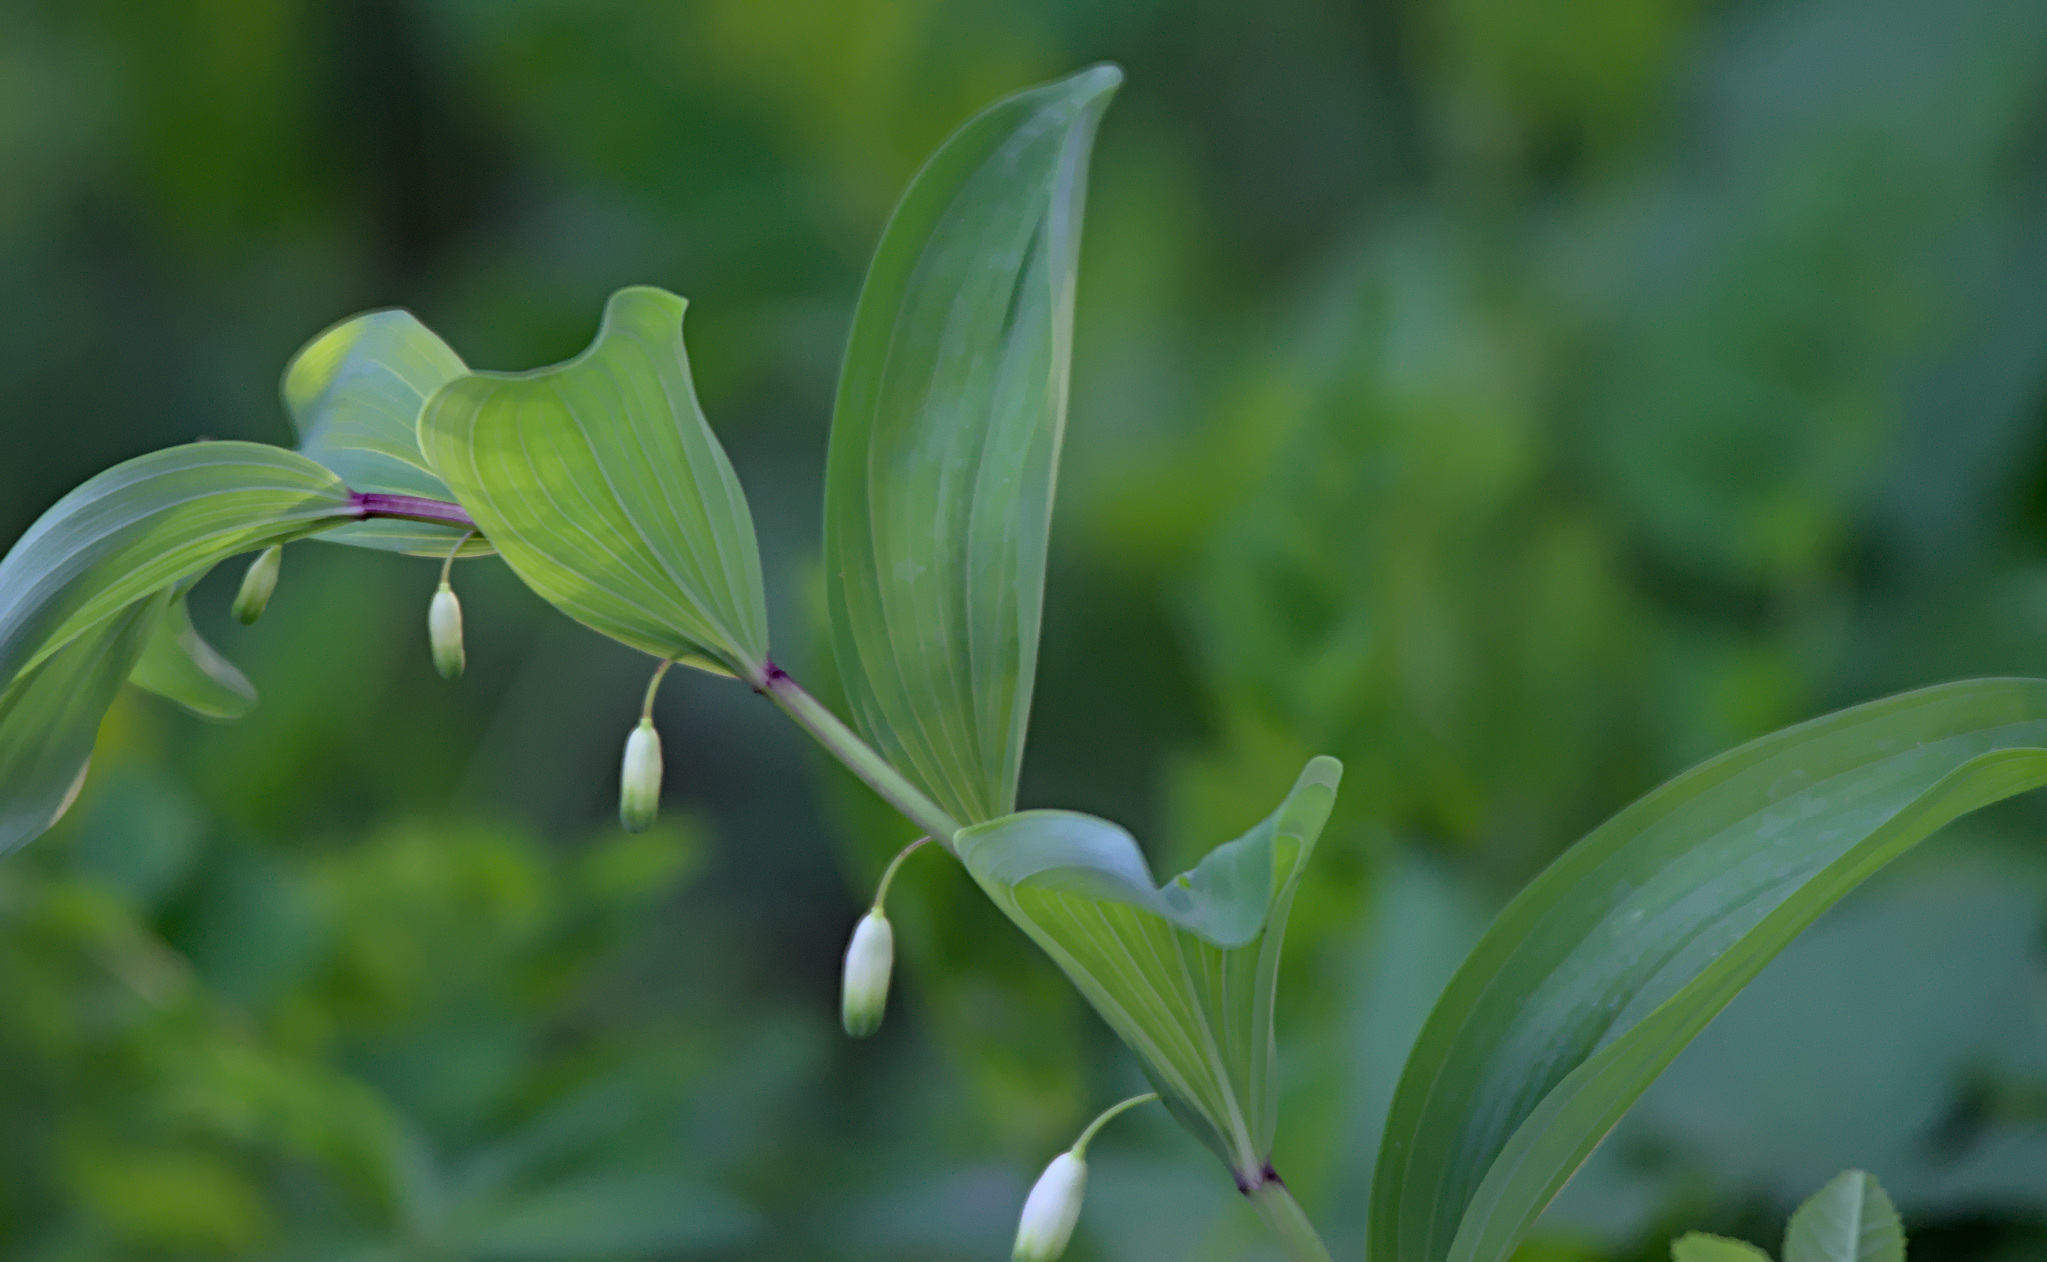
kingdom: Plantae
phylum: Tracheophyta
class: Liliopsida
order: Asparagales
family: Asparagaceae
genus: Polygonatum
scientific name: Polygonatum odoratum
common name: Angular solomon's-seal
